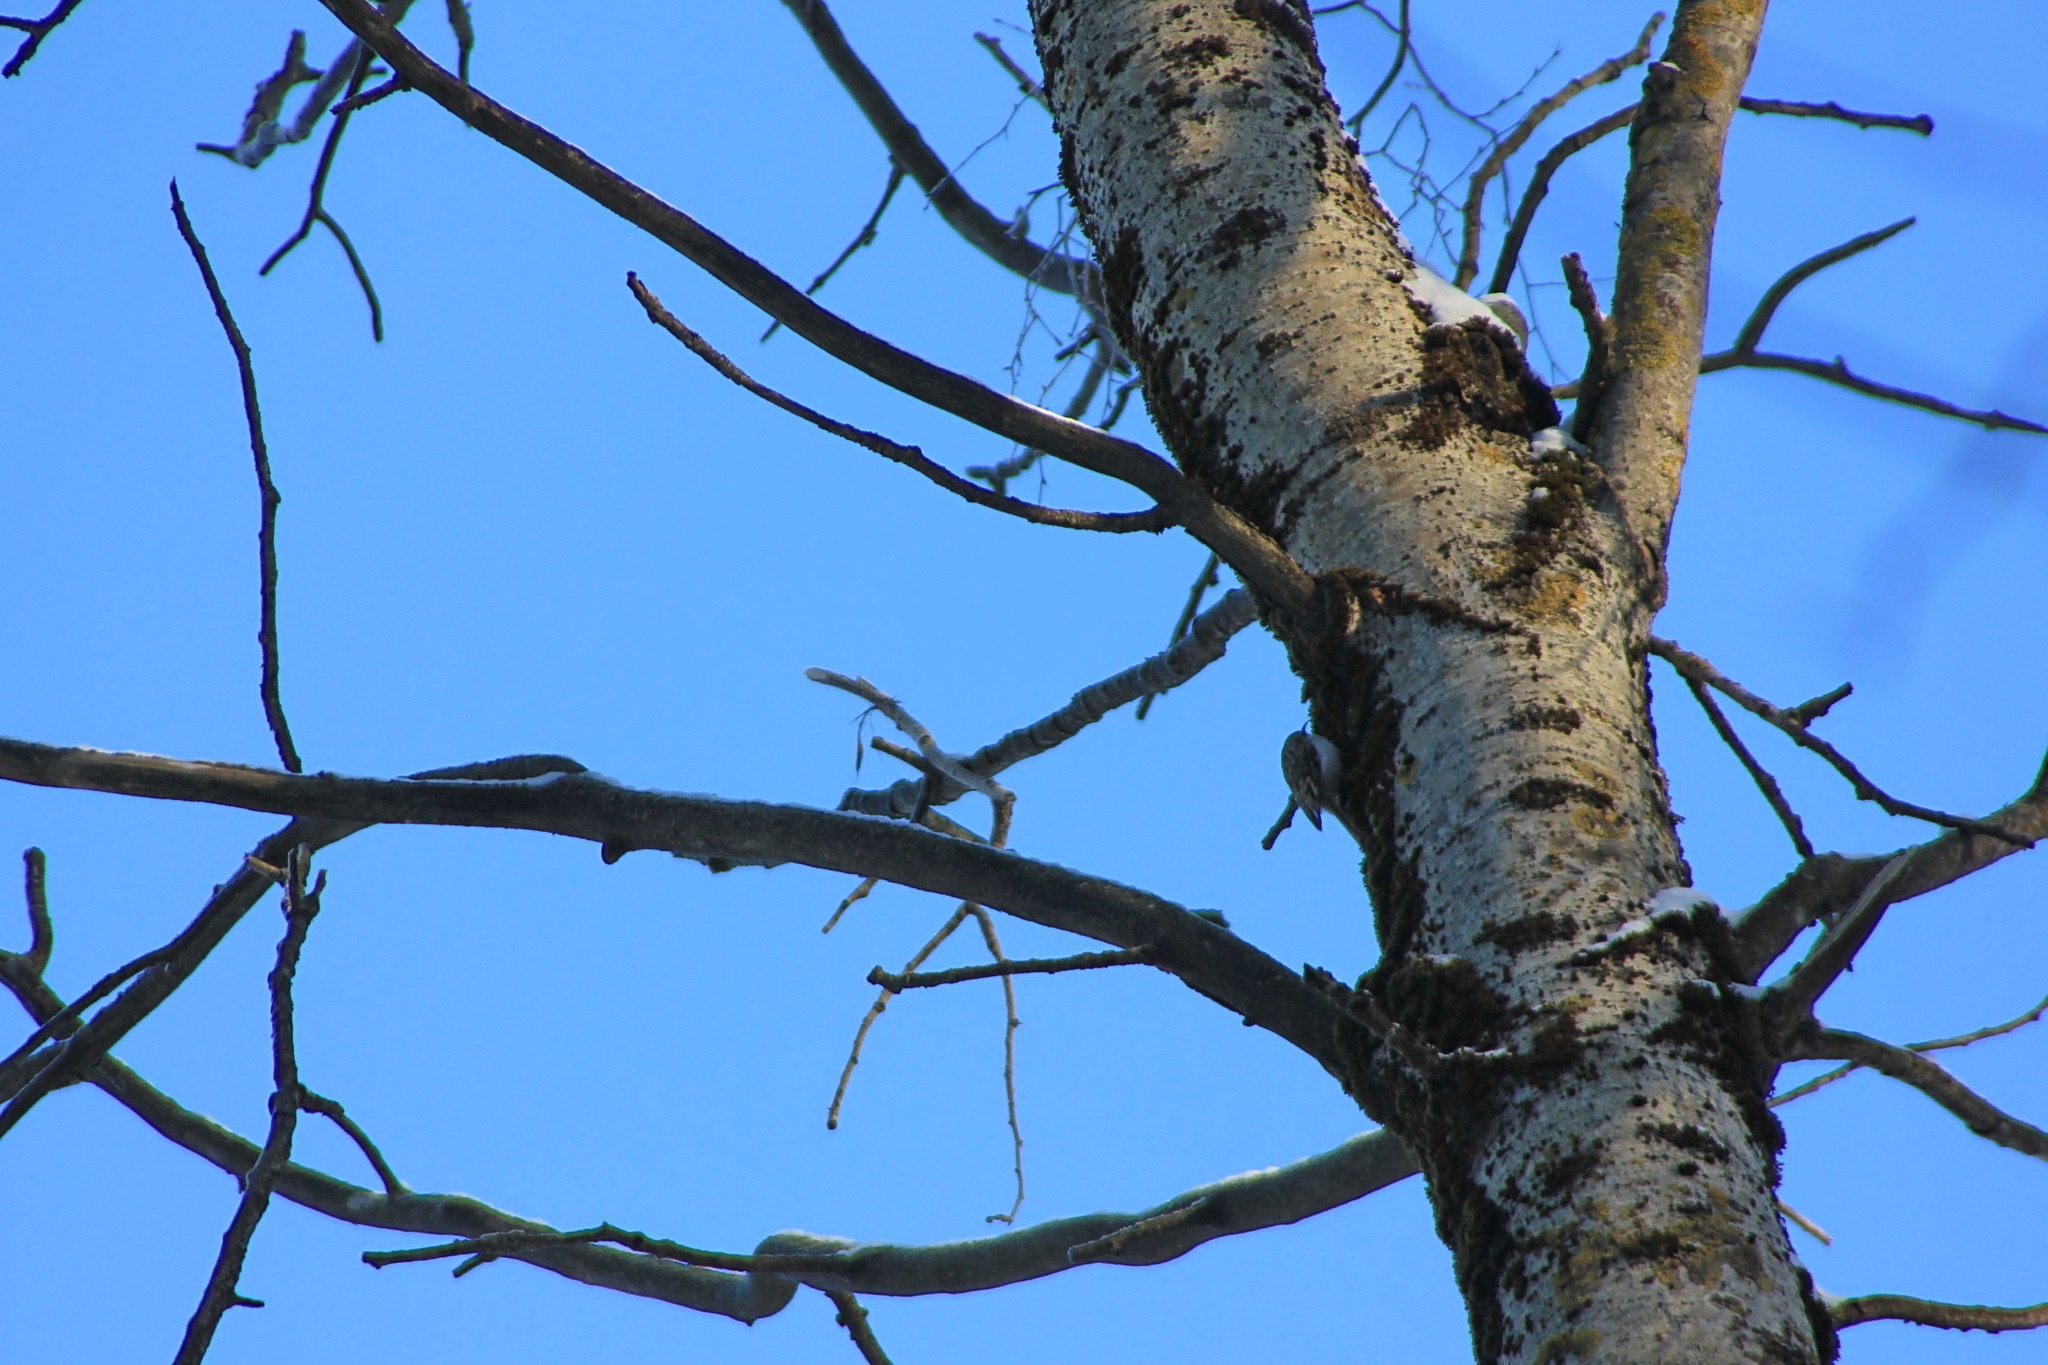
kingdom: Animalia
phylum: Chordata
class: Aves
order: Passeriformes
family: Certhiidae
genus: Certhia
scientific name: Certhia familiaris
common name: Eurasian treecreeper
